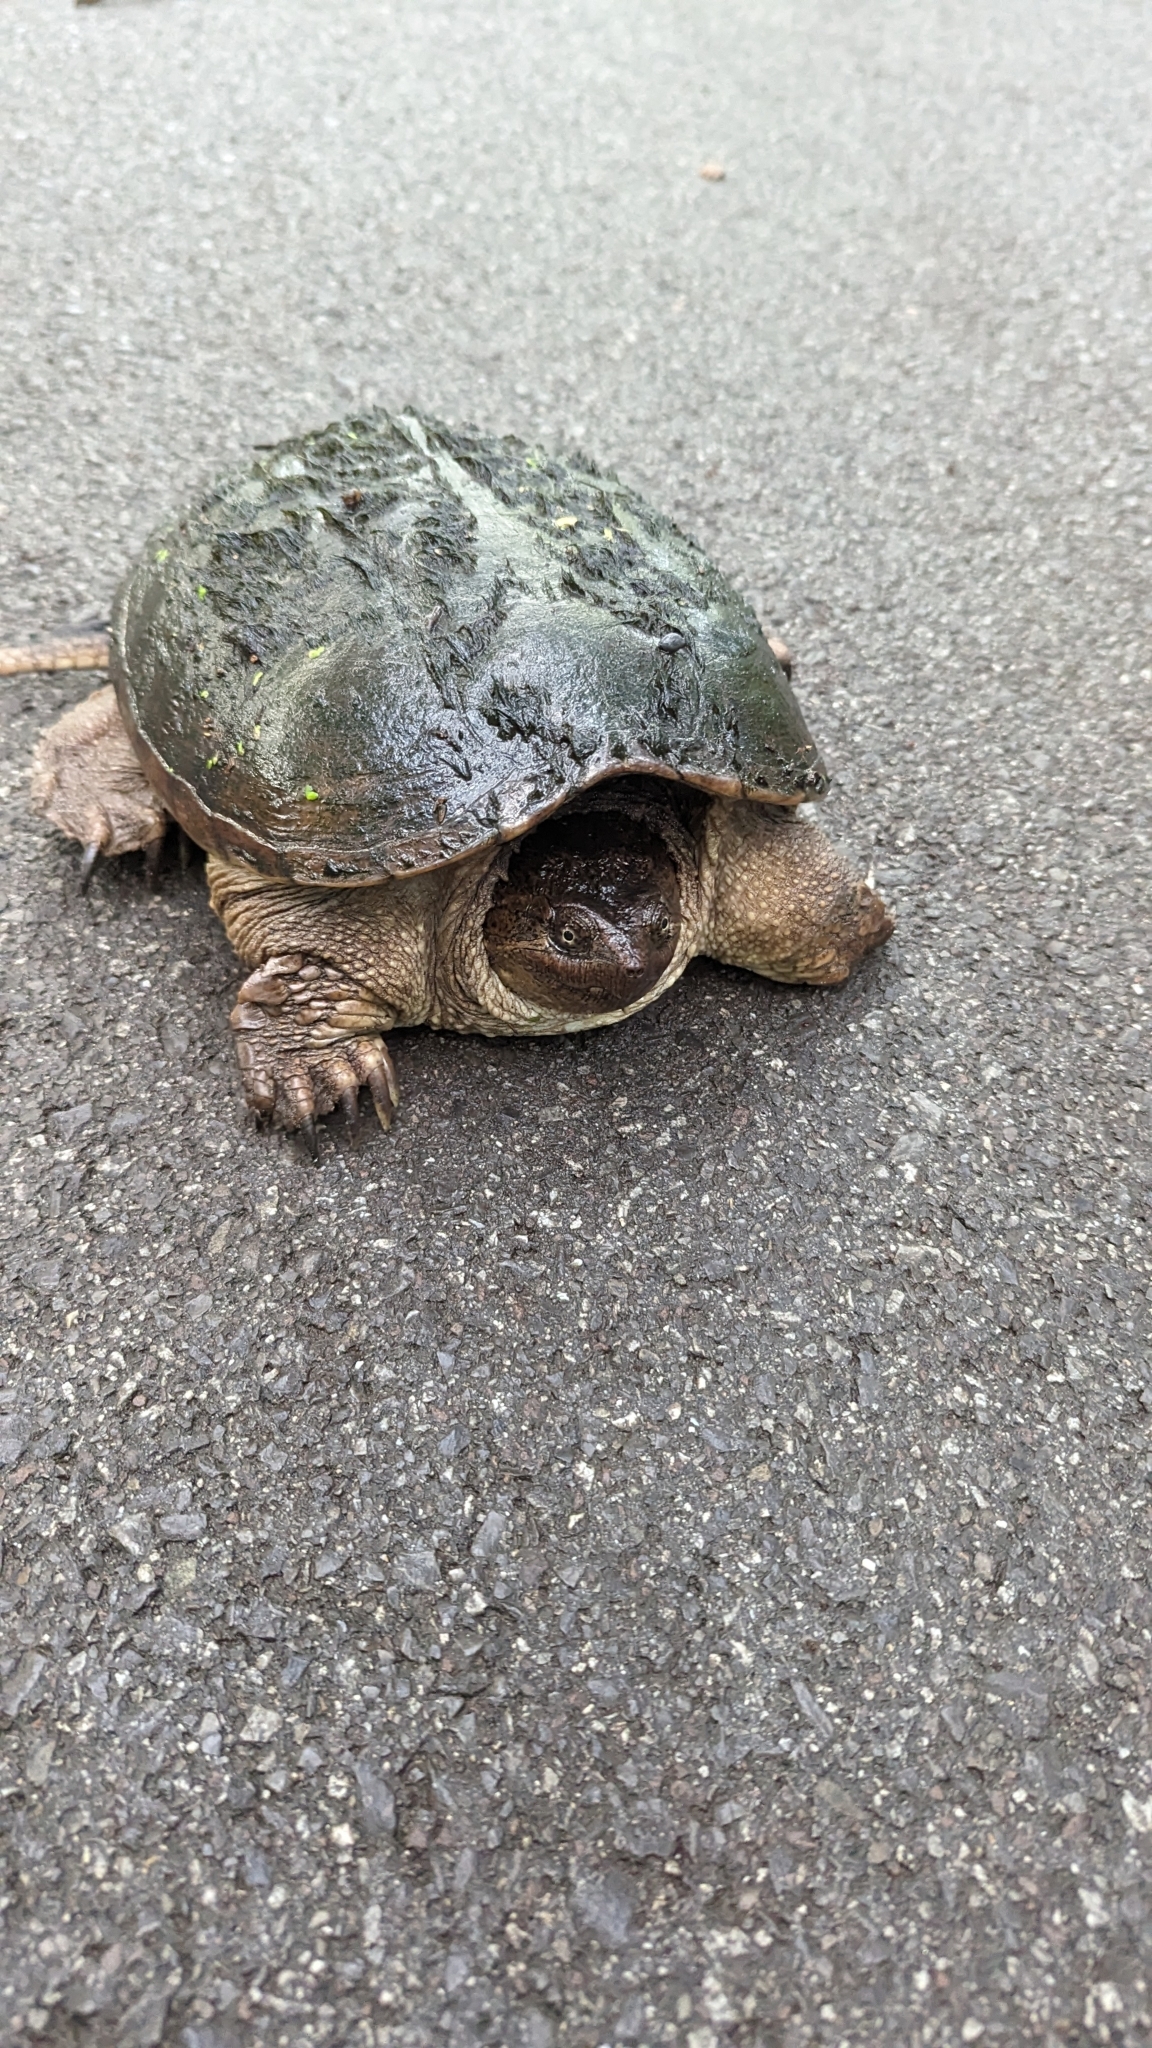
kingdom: Animalia
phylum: Chordata
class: Testudines
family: Chelydridae
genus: Chelydra
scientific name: Chelydra serpentina
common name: Common snapping turtle
